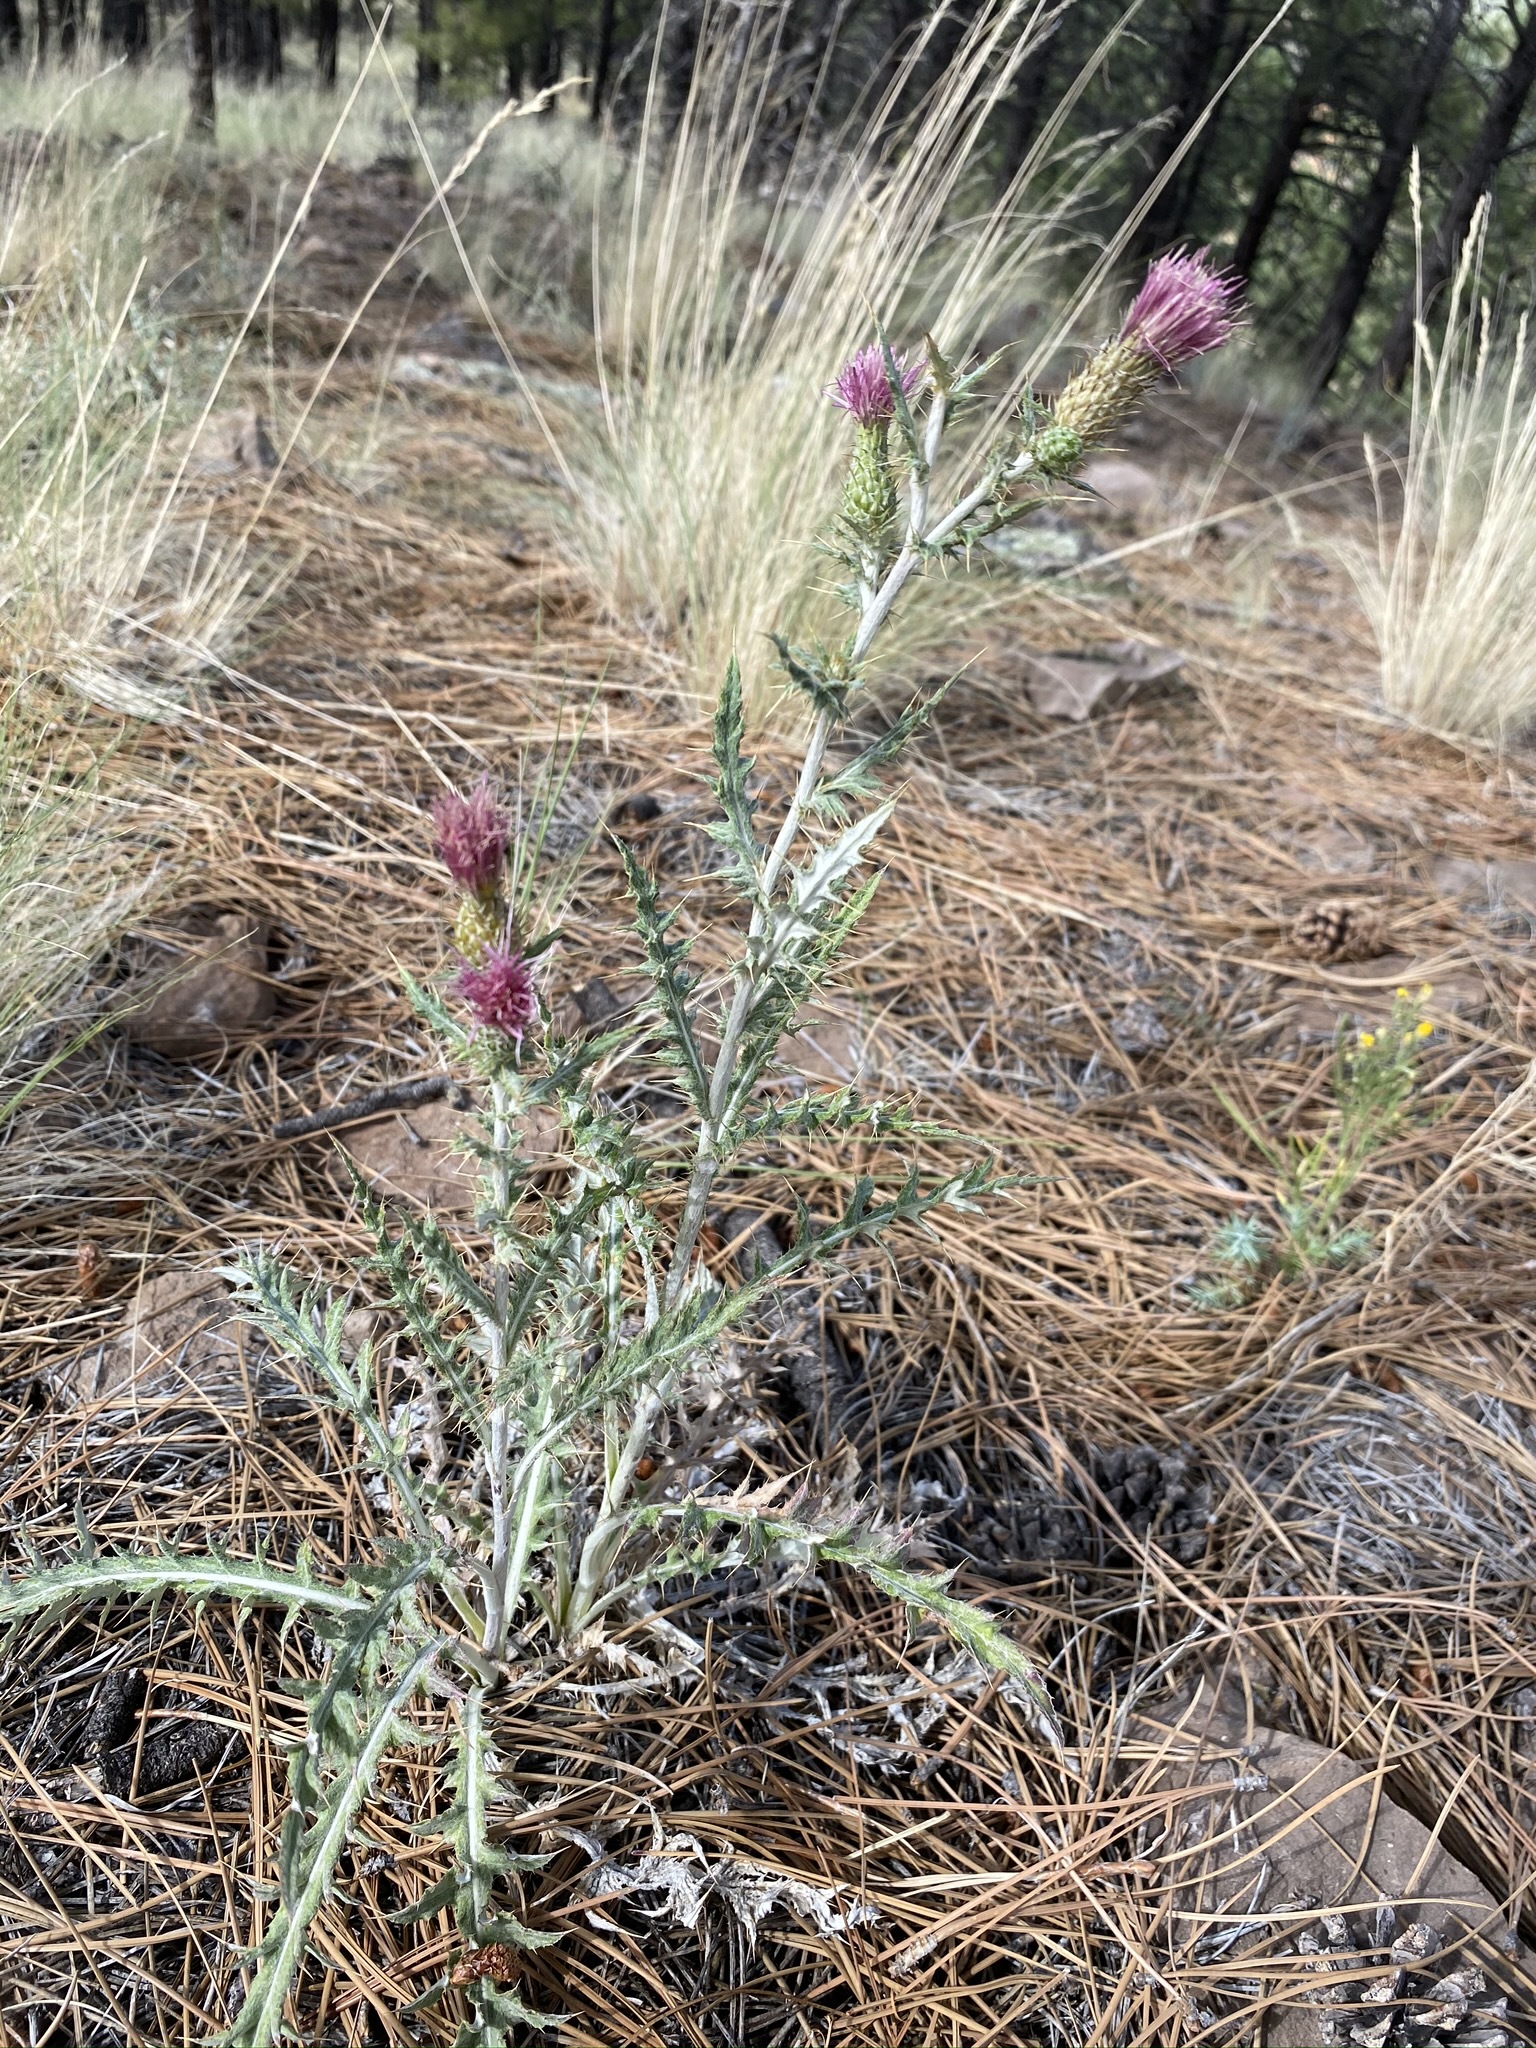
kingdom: Plantae
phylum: Tracheophyta
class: Magnoliopsida
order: Asterales
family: Asteraceae
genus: Cirsium
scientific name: Cirsium arizonicum
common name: Arizona thistle
